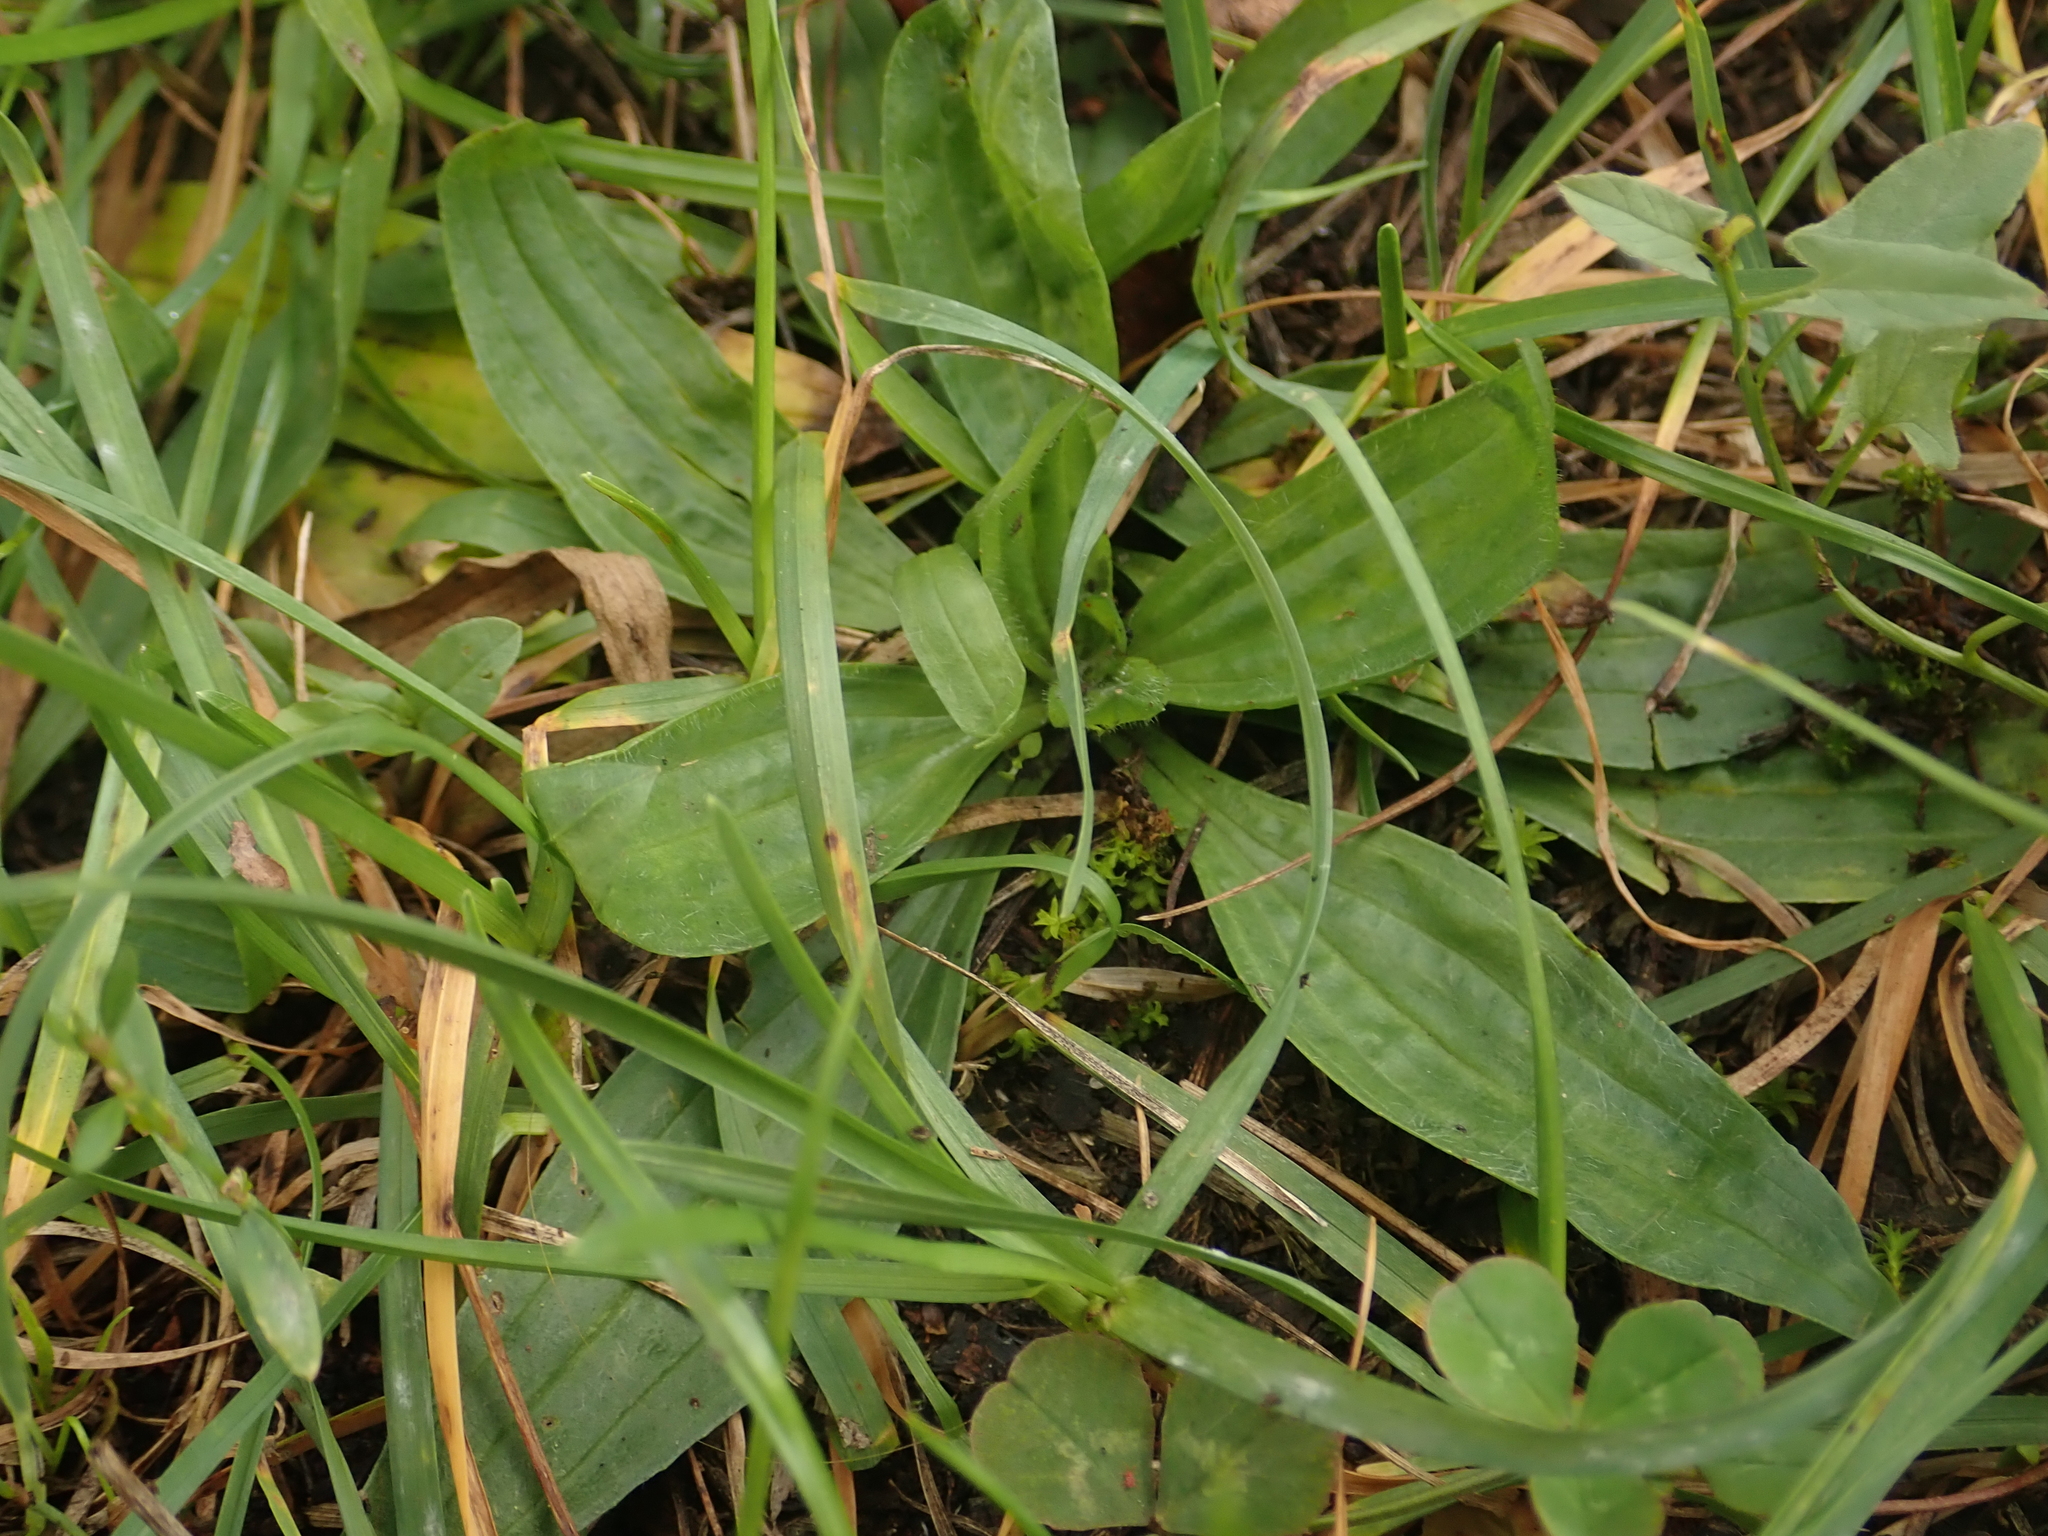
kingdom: Plantae
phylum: Tracheophyta
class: Magnoliopsida
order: Lamiales
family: Plantaginaceae
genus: Plantago
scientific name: Plantago lanceolata
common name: Ribwort plantain
